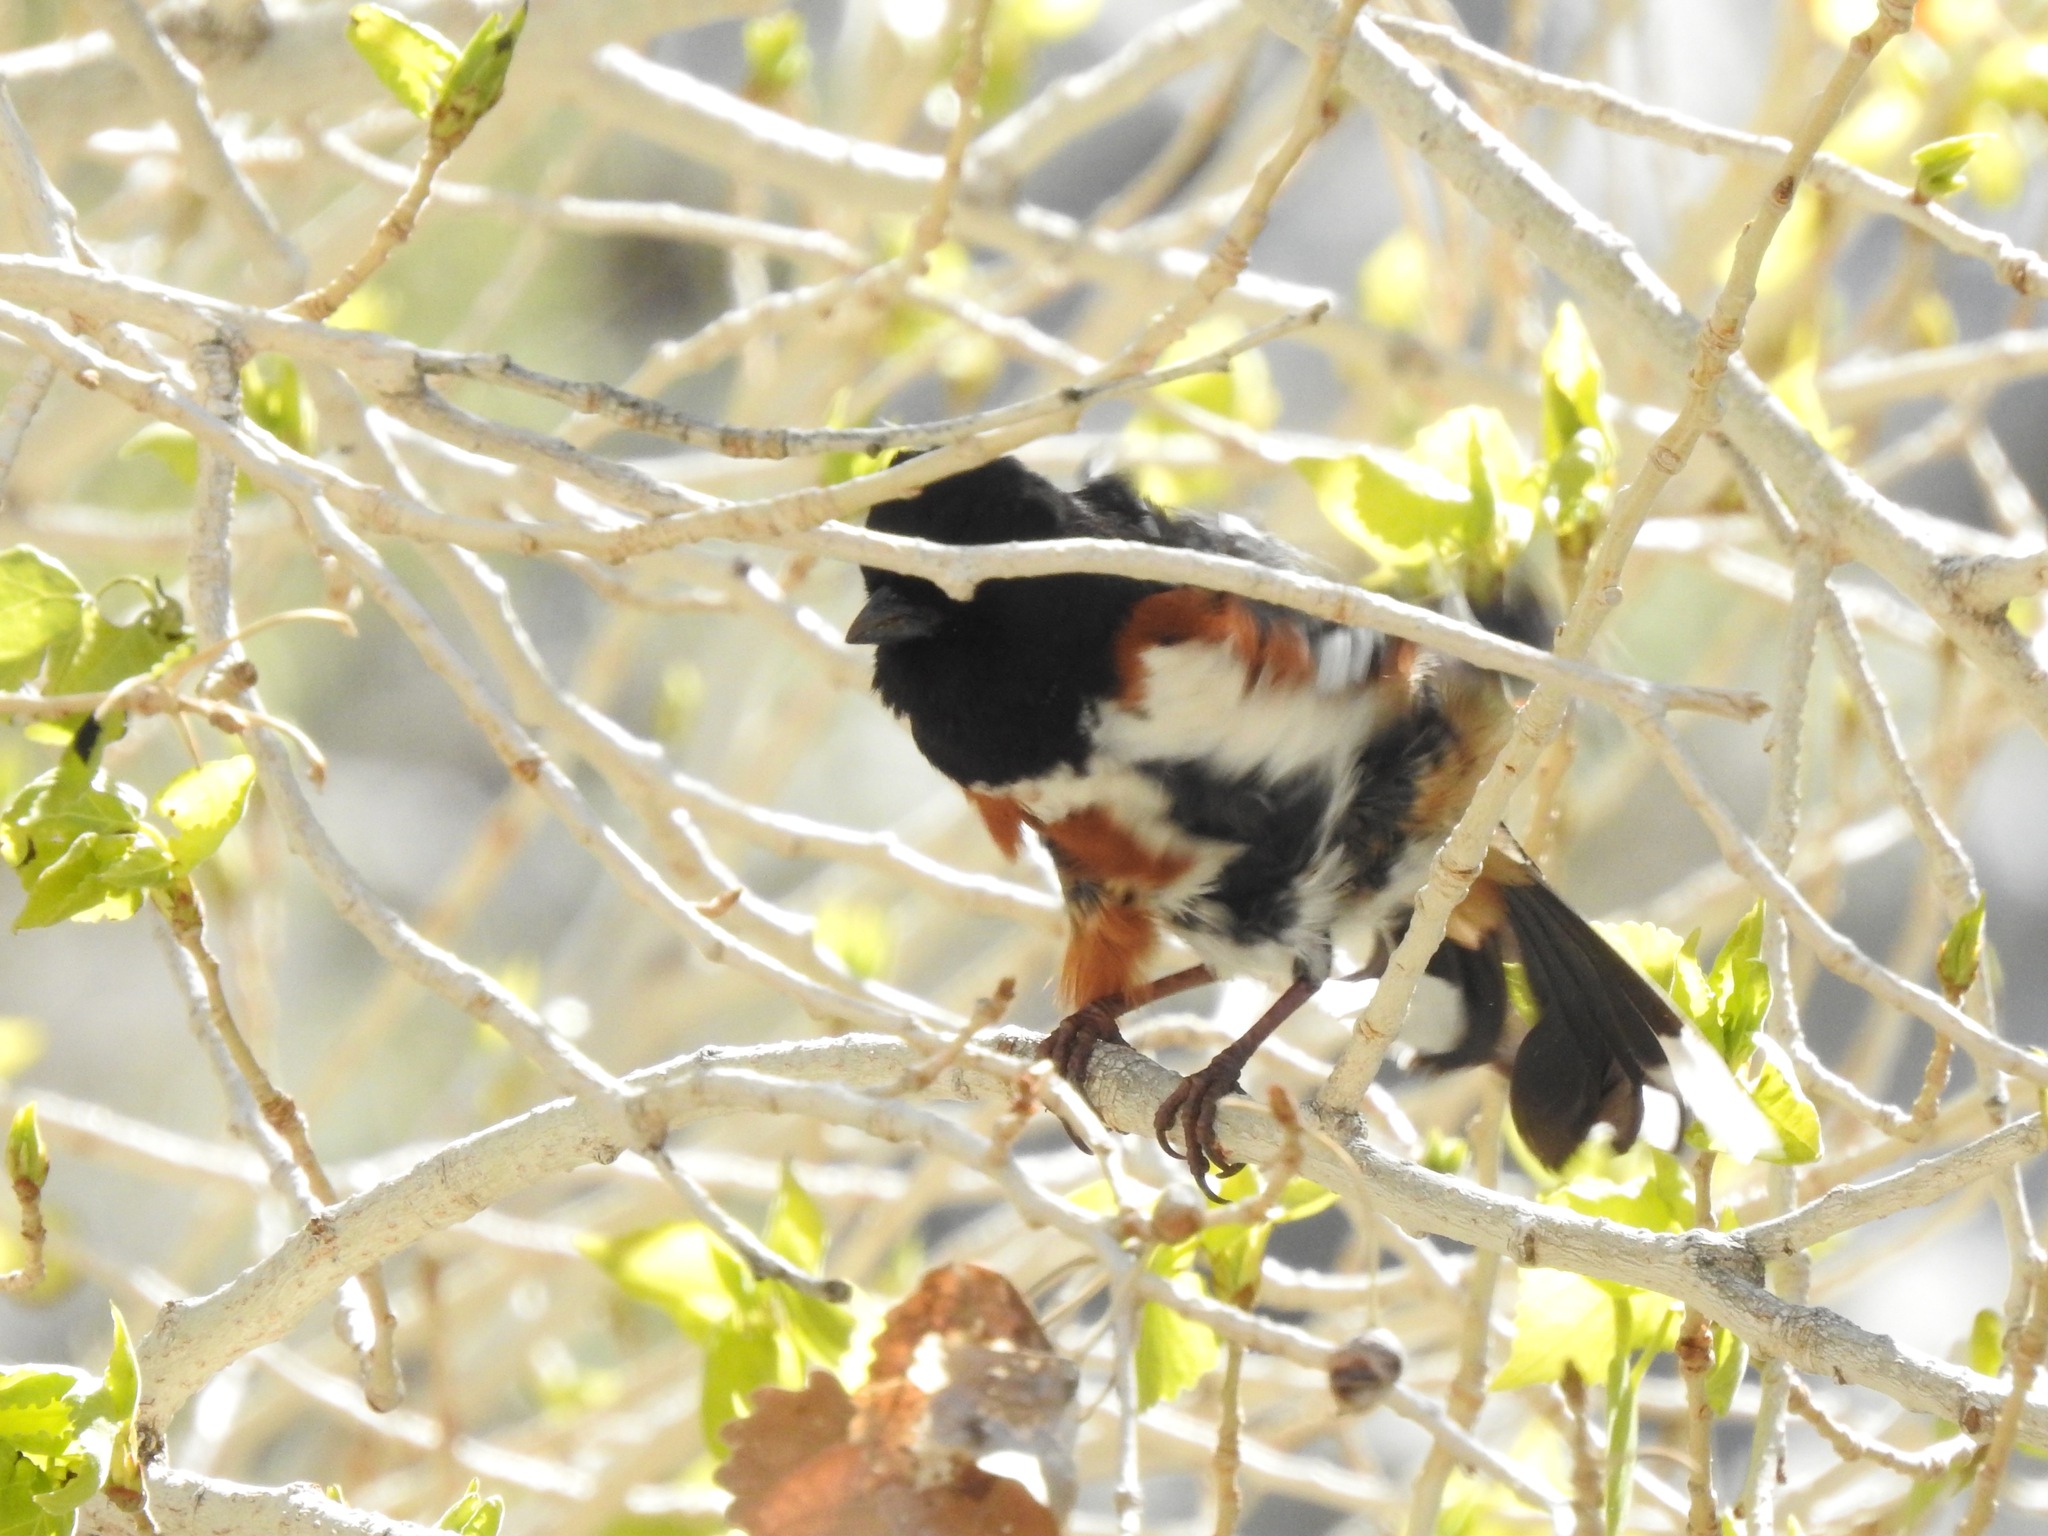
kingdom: Animalia
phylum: Chordata
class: Aves
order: Passeriformes
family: Passerellidae
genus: Pipilo
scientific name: Pipilo maculatus
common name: Spotted towhee
